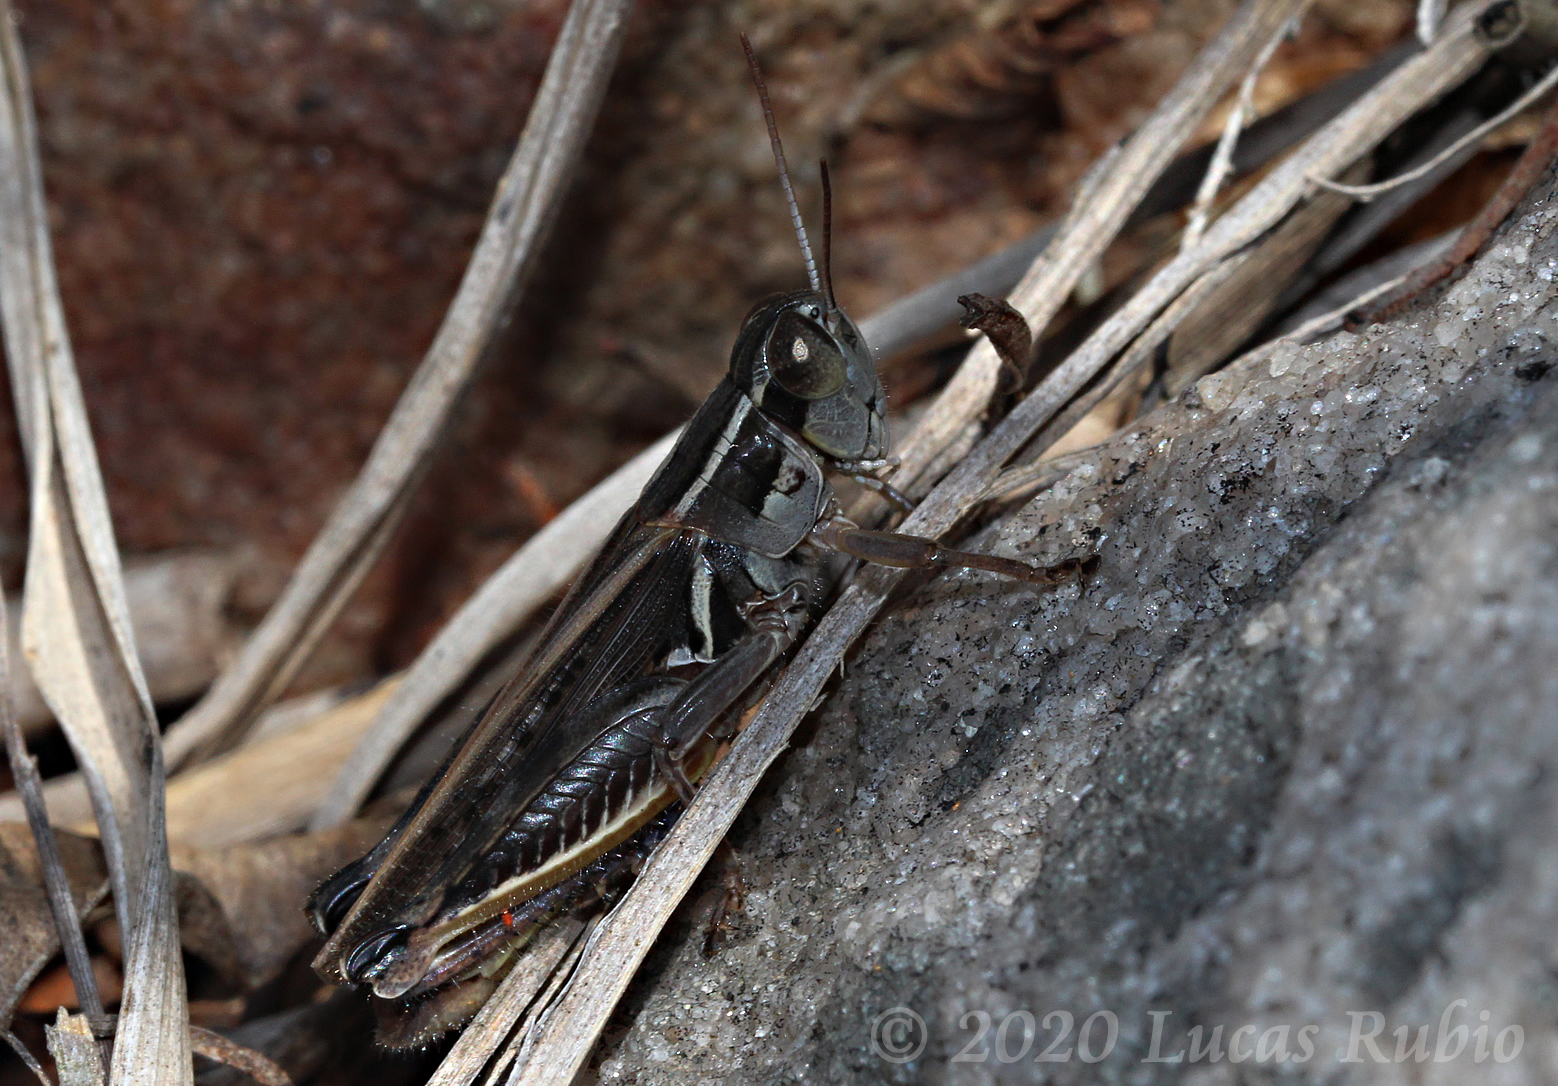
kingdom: Animalia
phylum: Arthropoda
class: Insecta
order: Orthoptera
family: Acrididae
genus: Dichroplus
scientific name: Dichroplus pratensis
